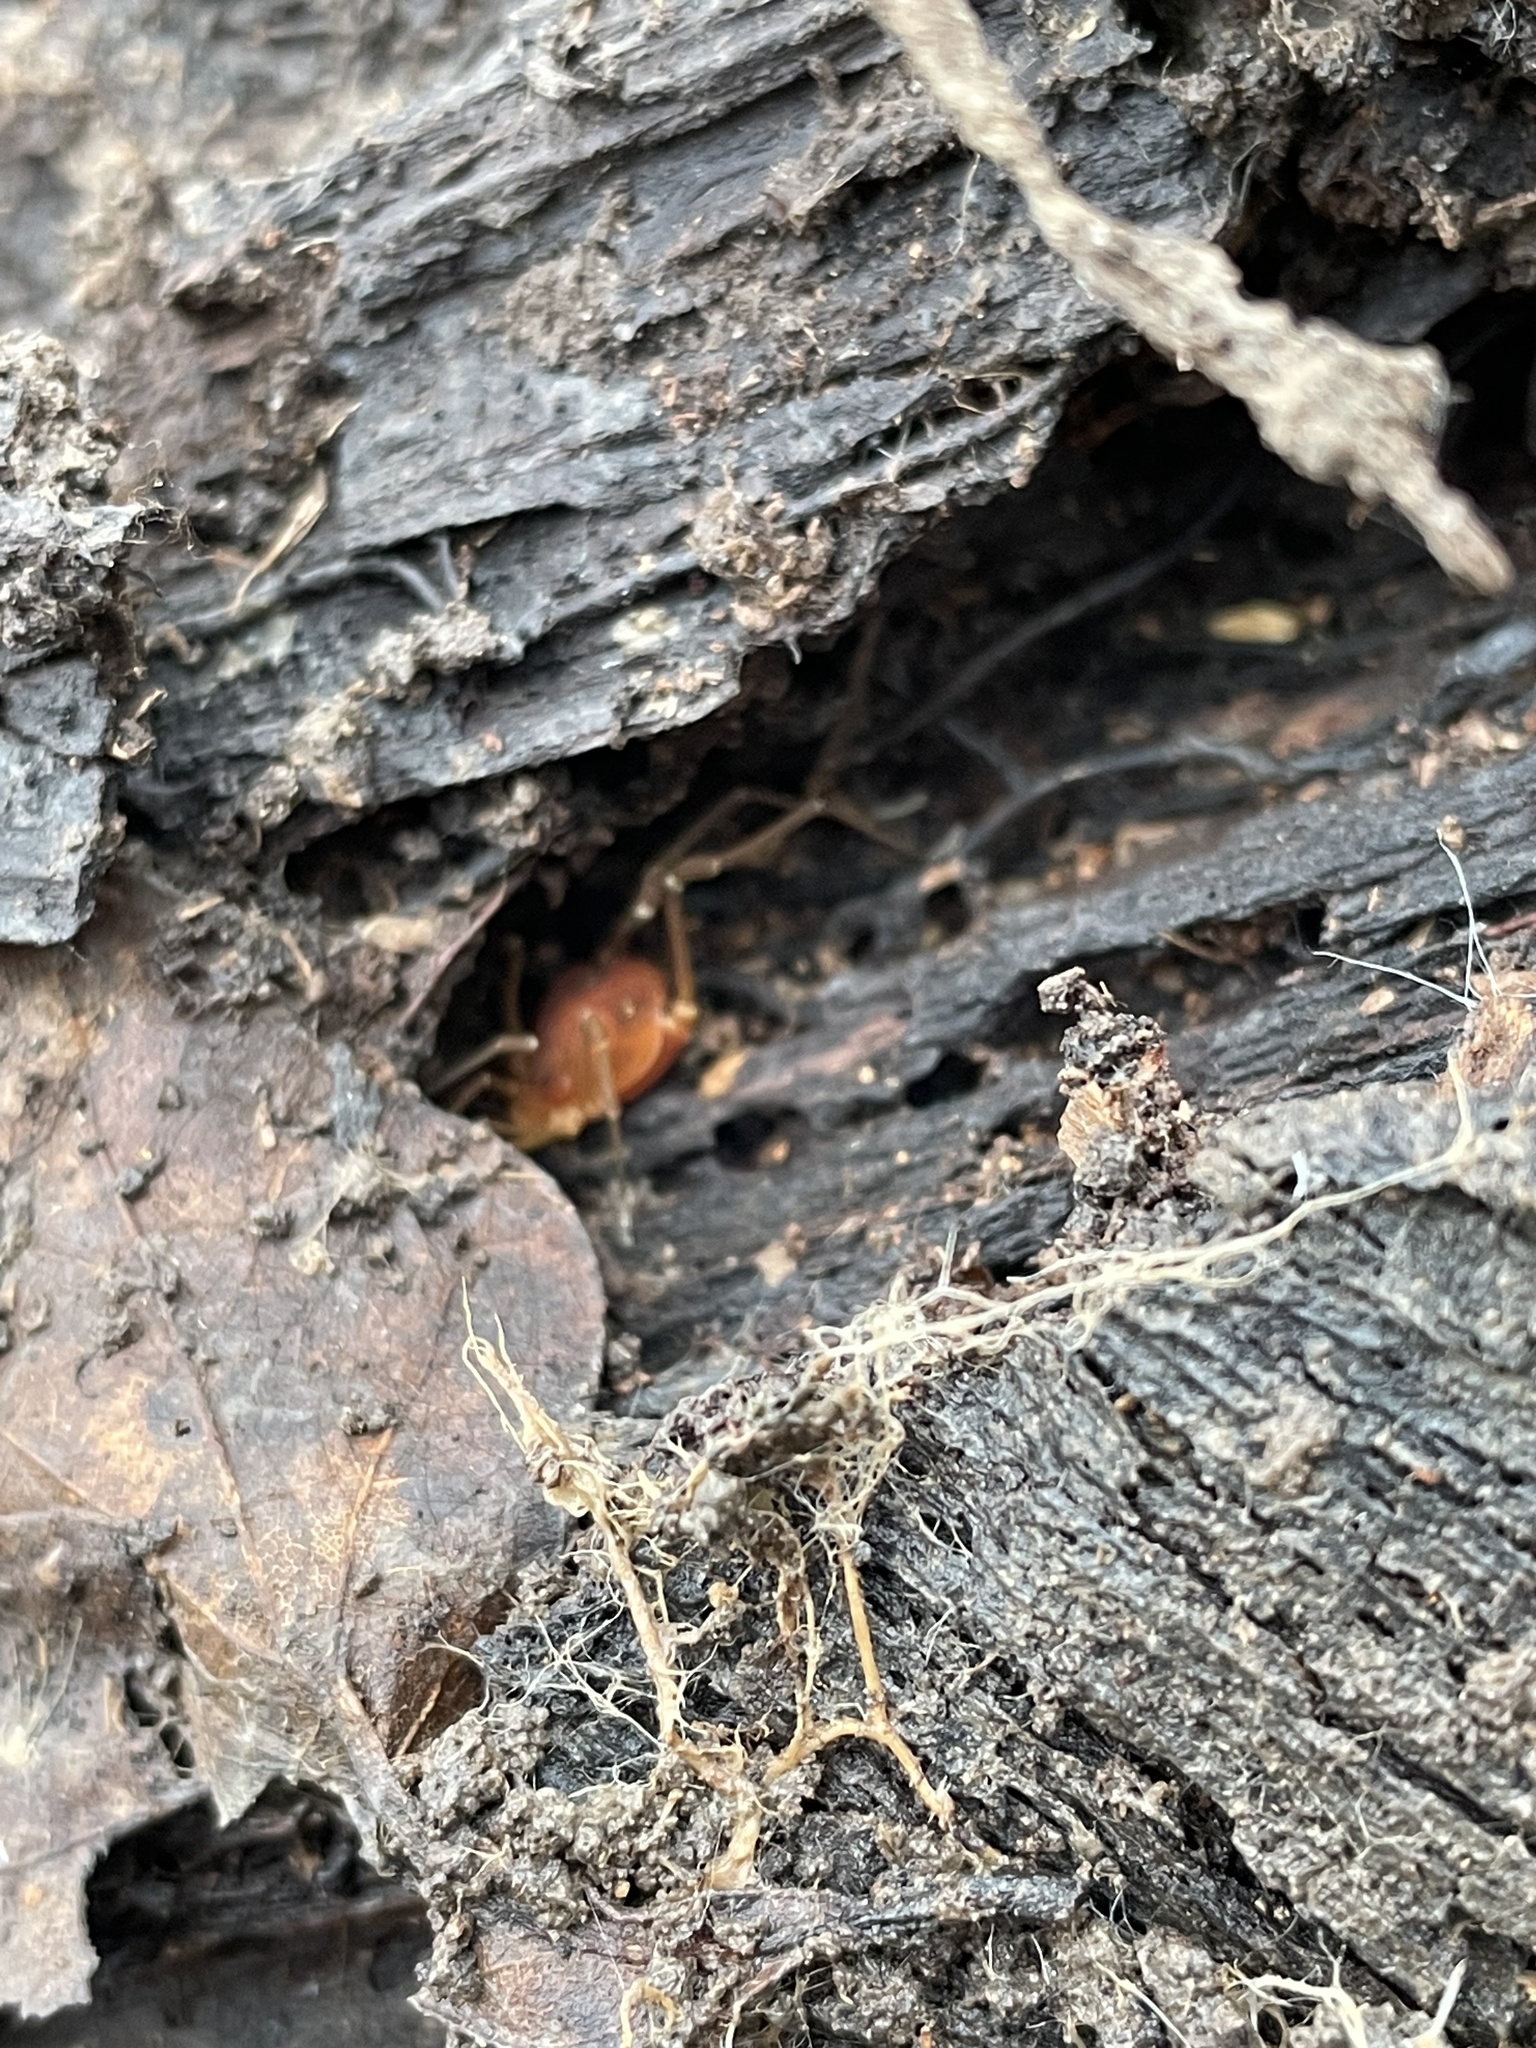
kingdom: Animalia
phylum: Arthropoda
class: Arachnida
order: Opiliones
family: Cosmetidae
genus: Libitioides
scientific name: Libitioides sayi
